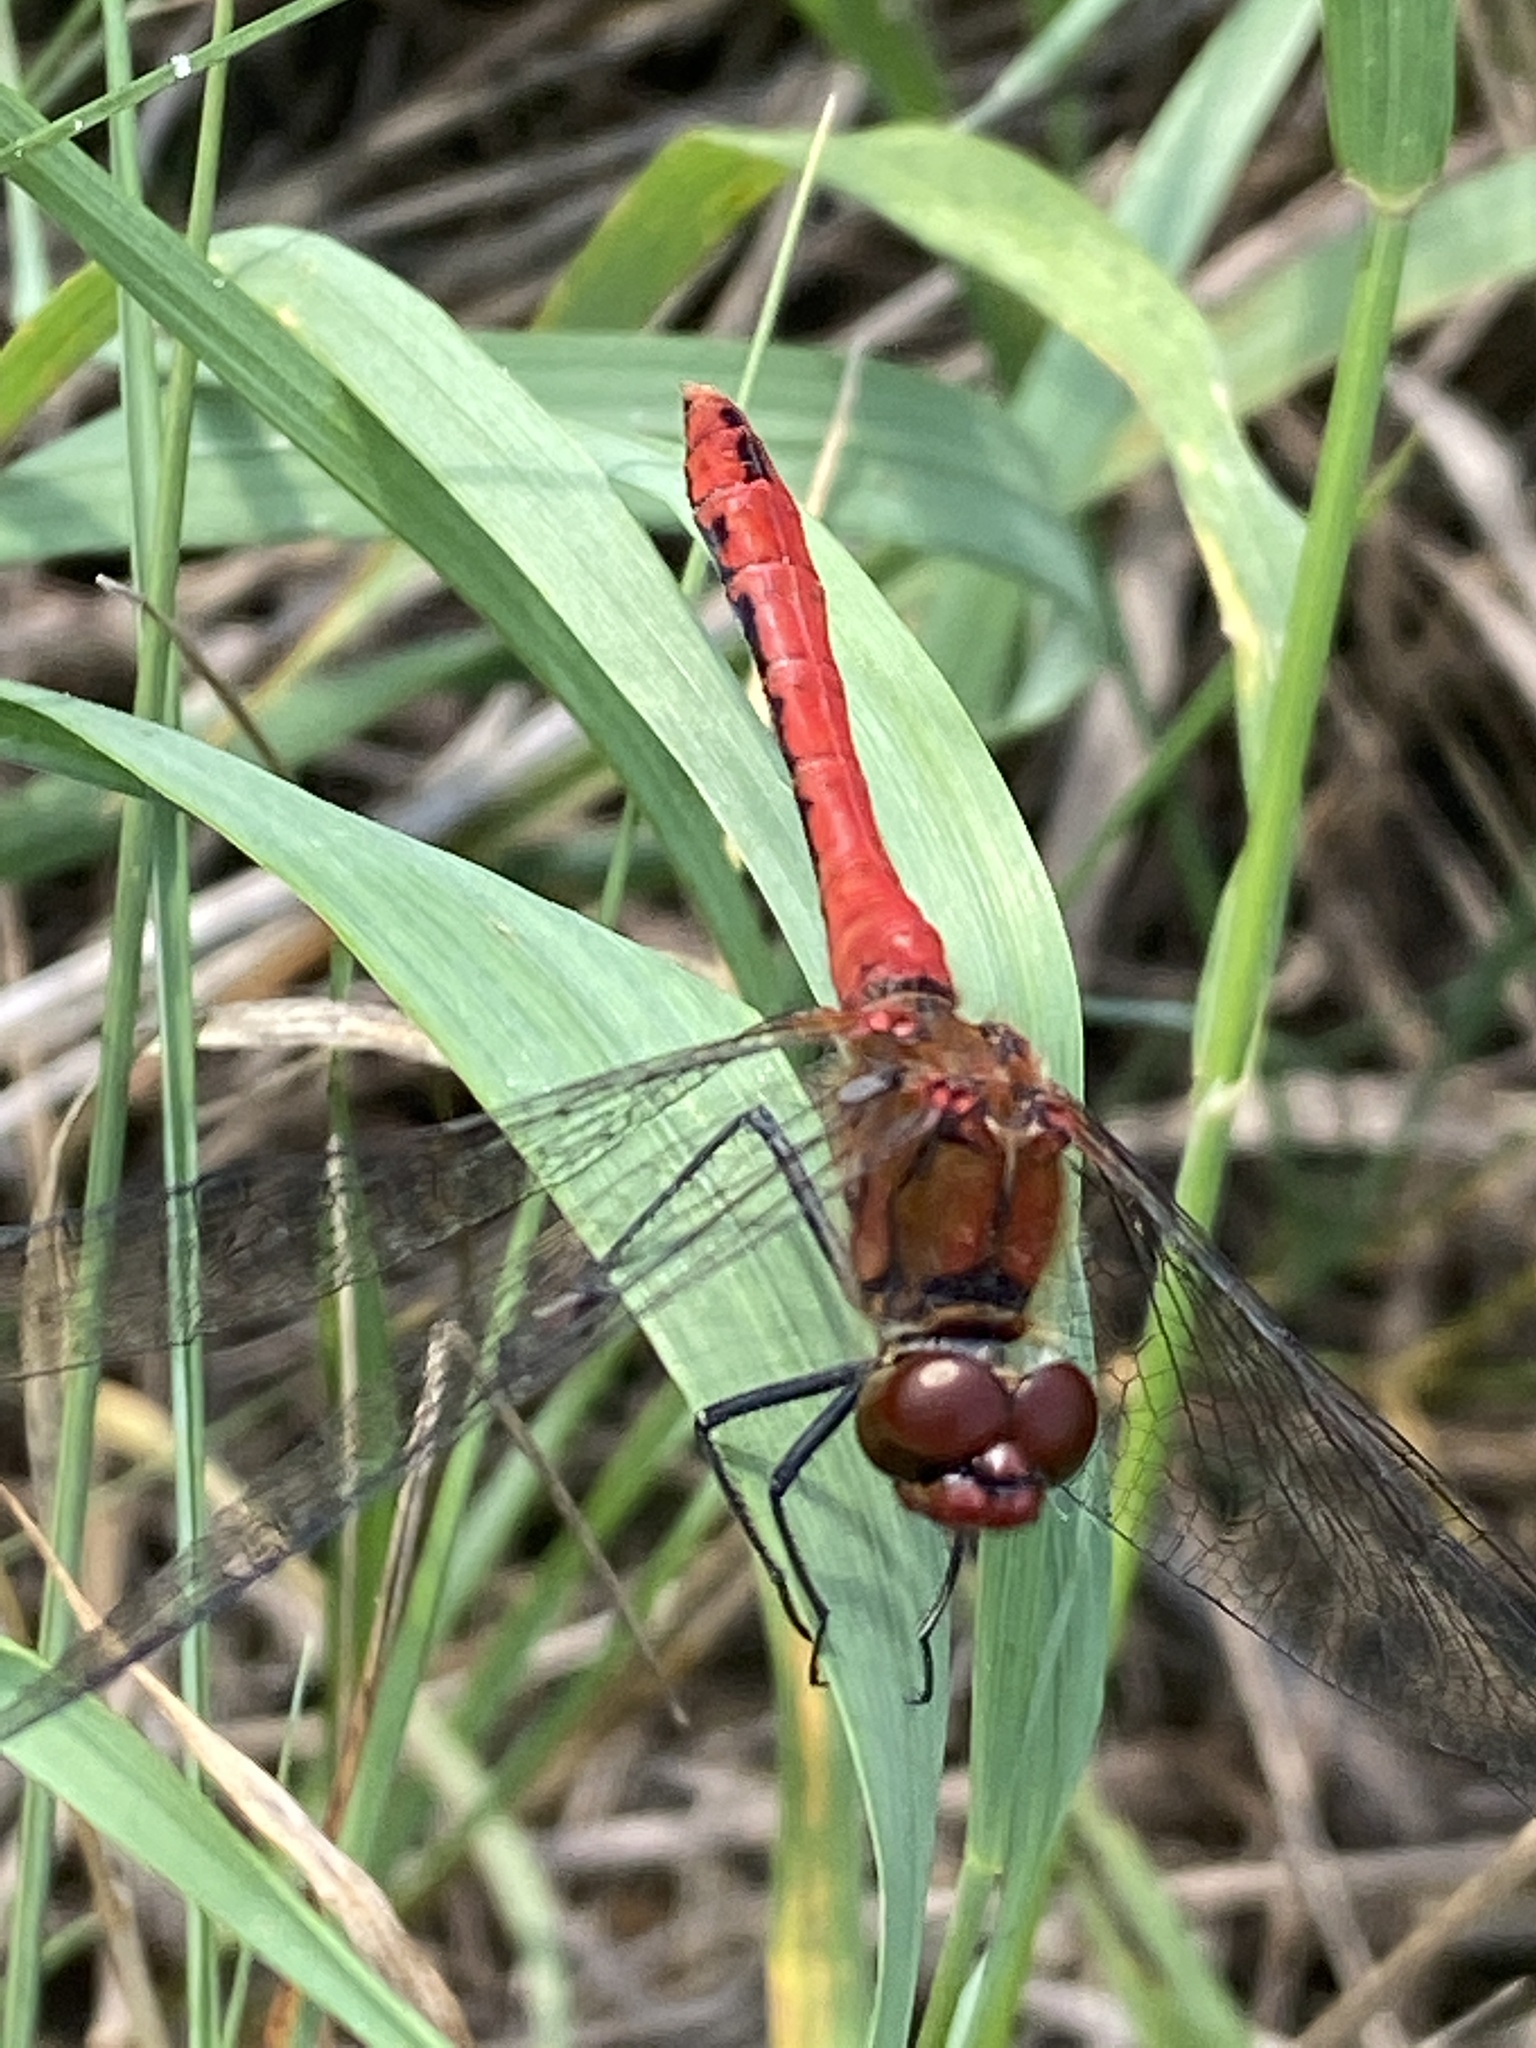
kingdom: Animalia
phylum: Arthropoda
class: Insecta
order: Odonata
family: Libellulidae
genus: Sympetrum
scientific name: Sympetrum sanguineum
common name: Ruddy darter
